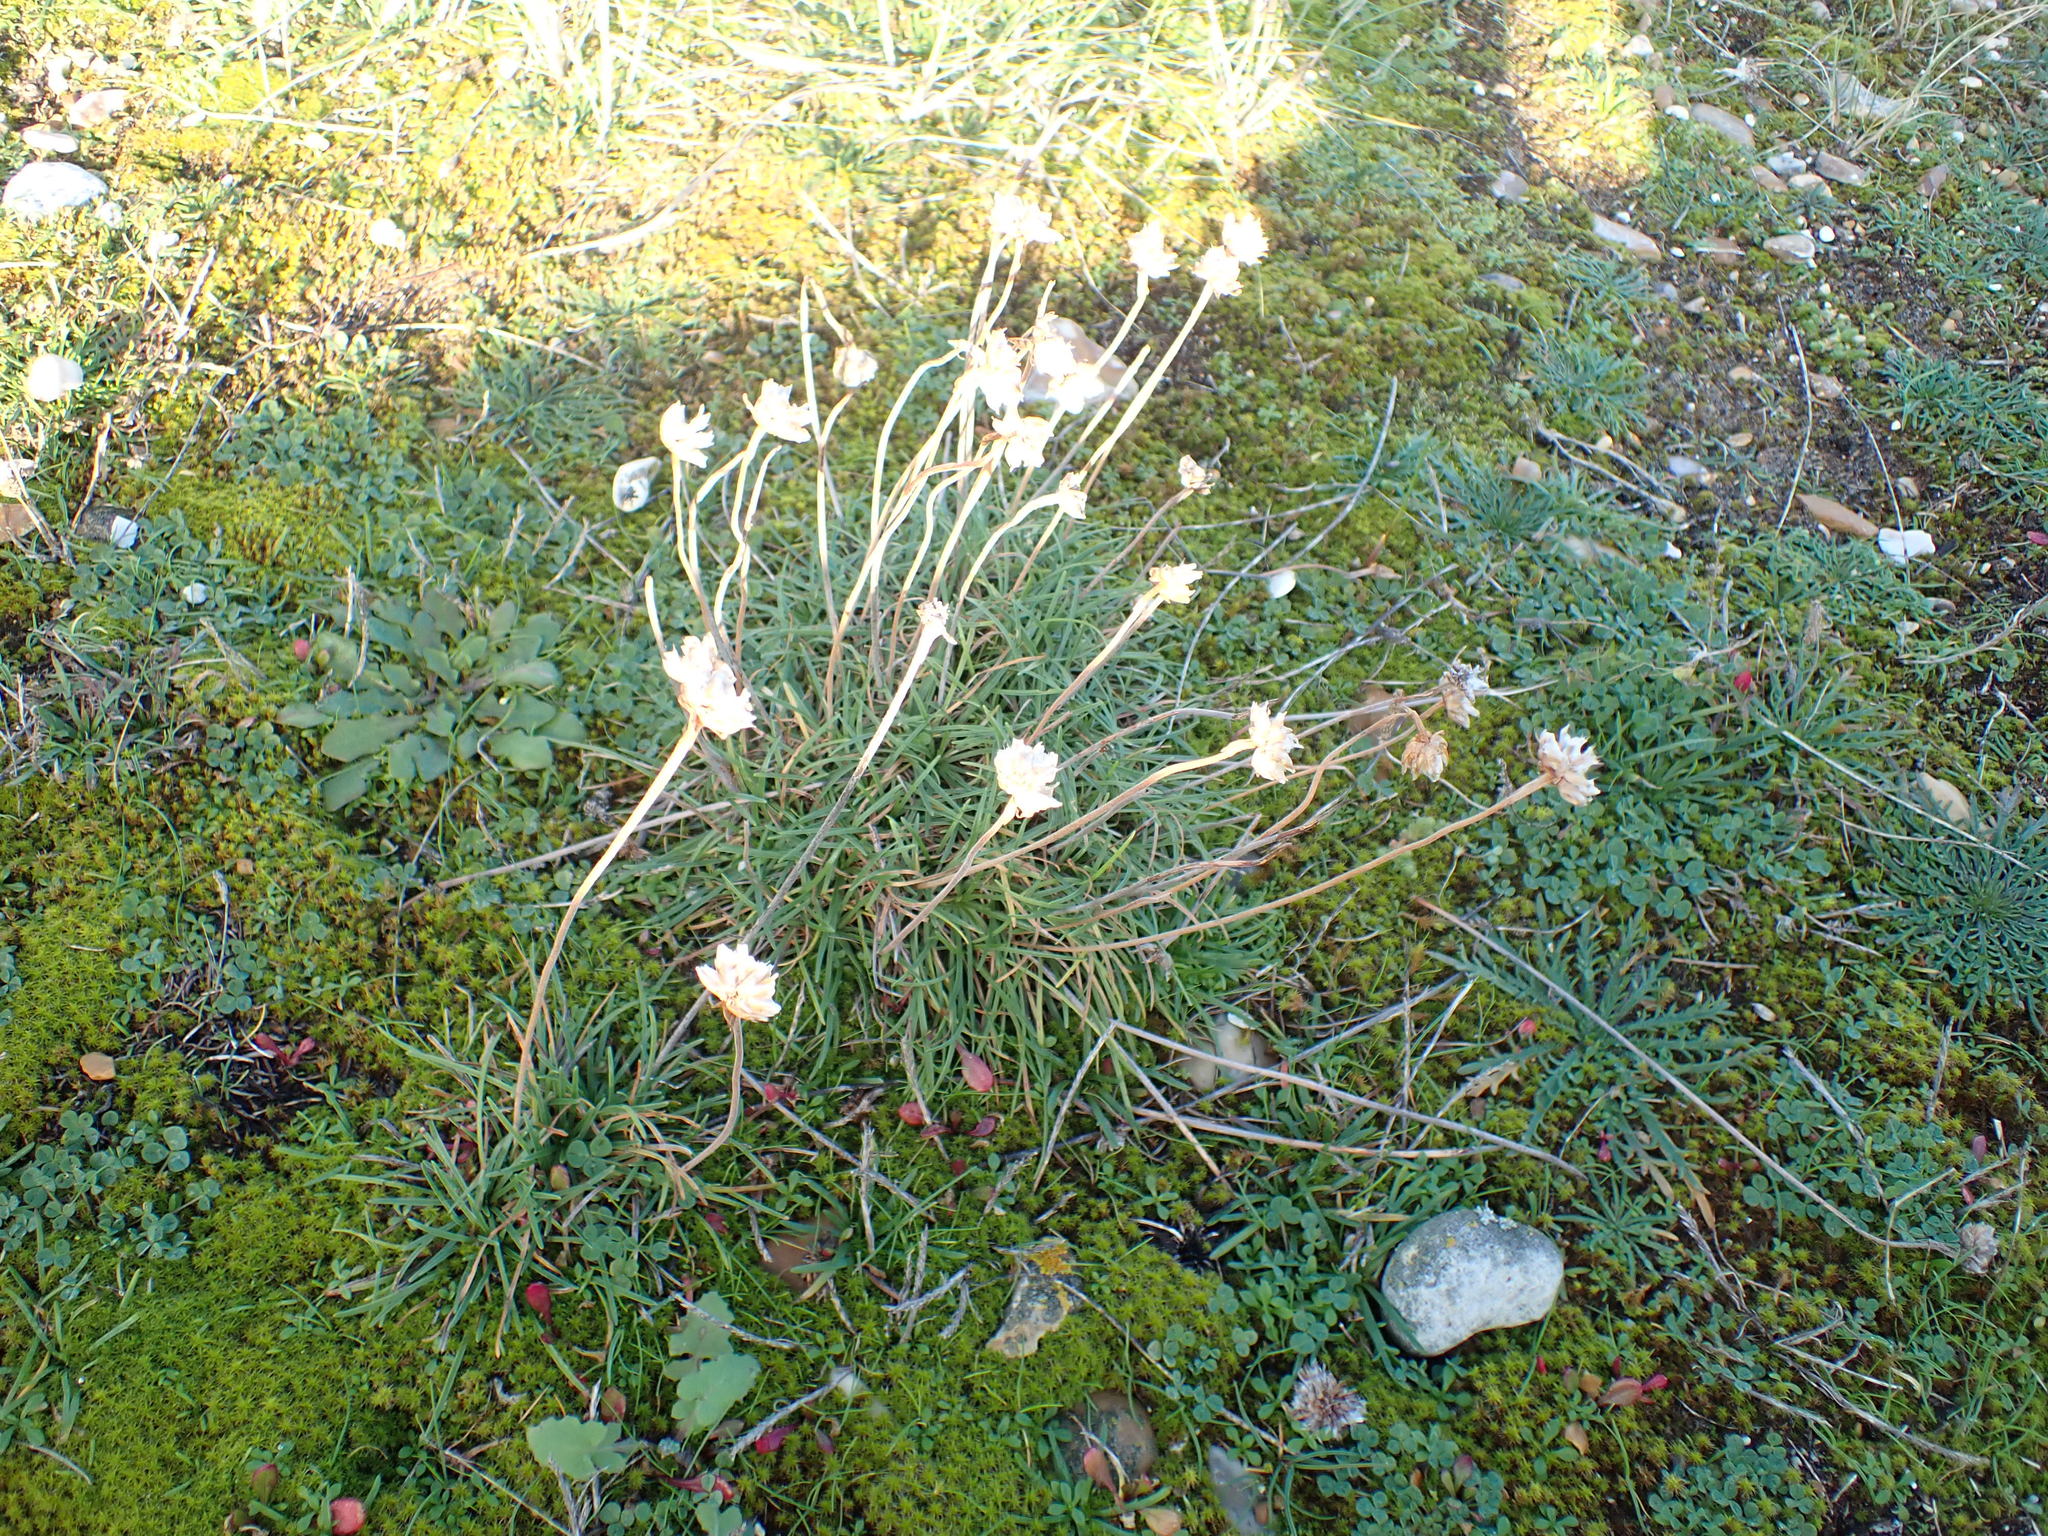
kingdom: Plantae
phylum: Tracheophyta
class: Magnoliopsida
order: Caryophyllales
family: Plumbaginaceae
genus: Armeria
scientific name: Armeria maritima
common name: Thrift
